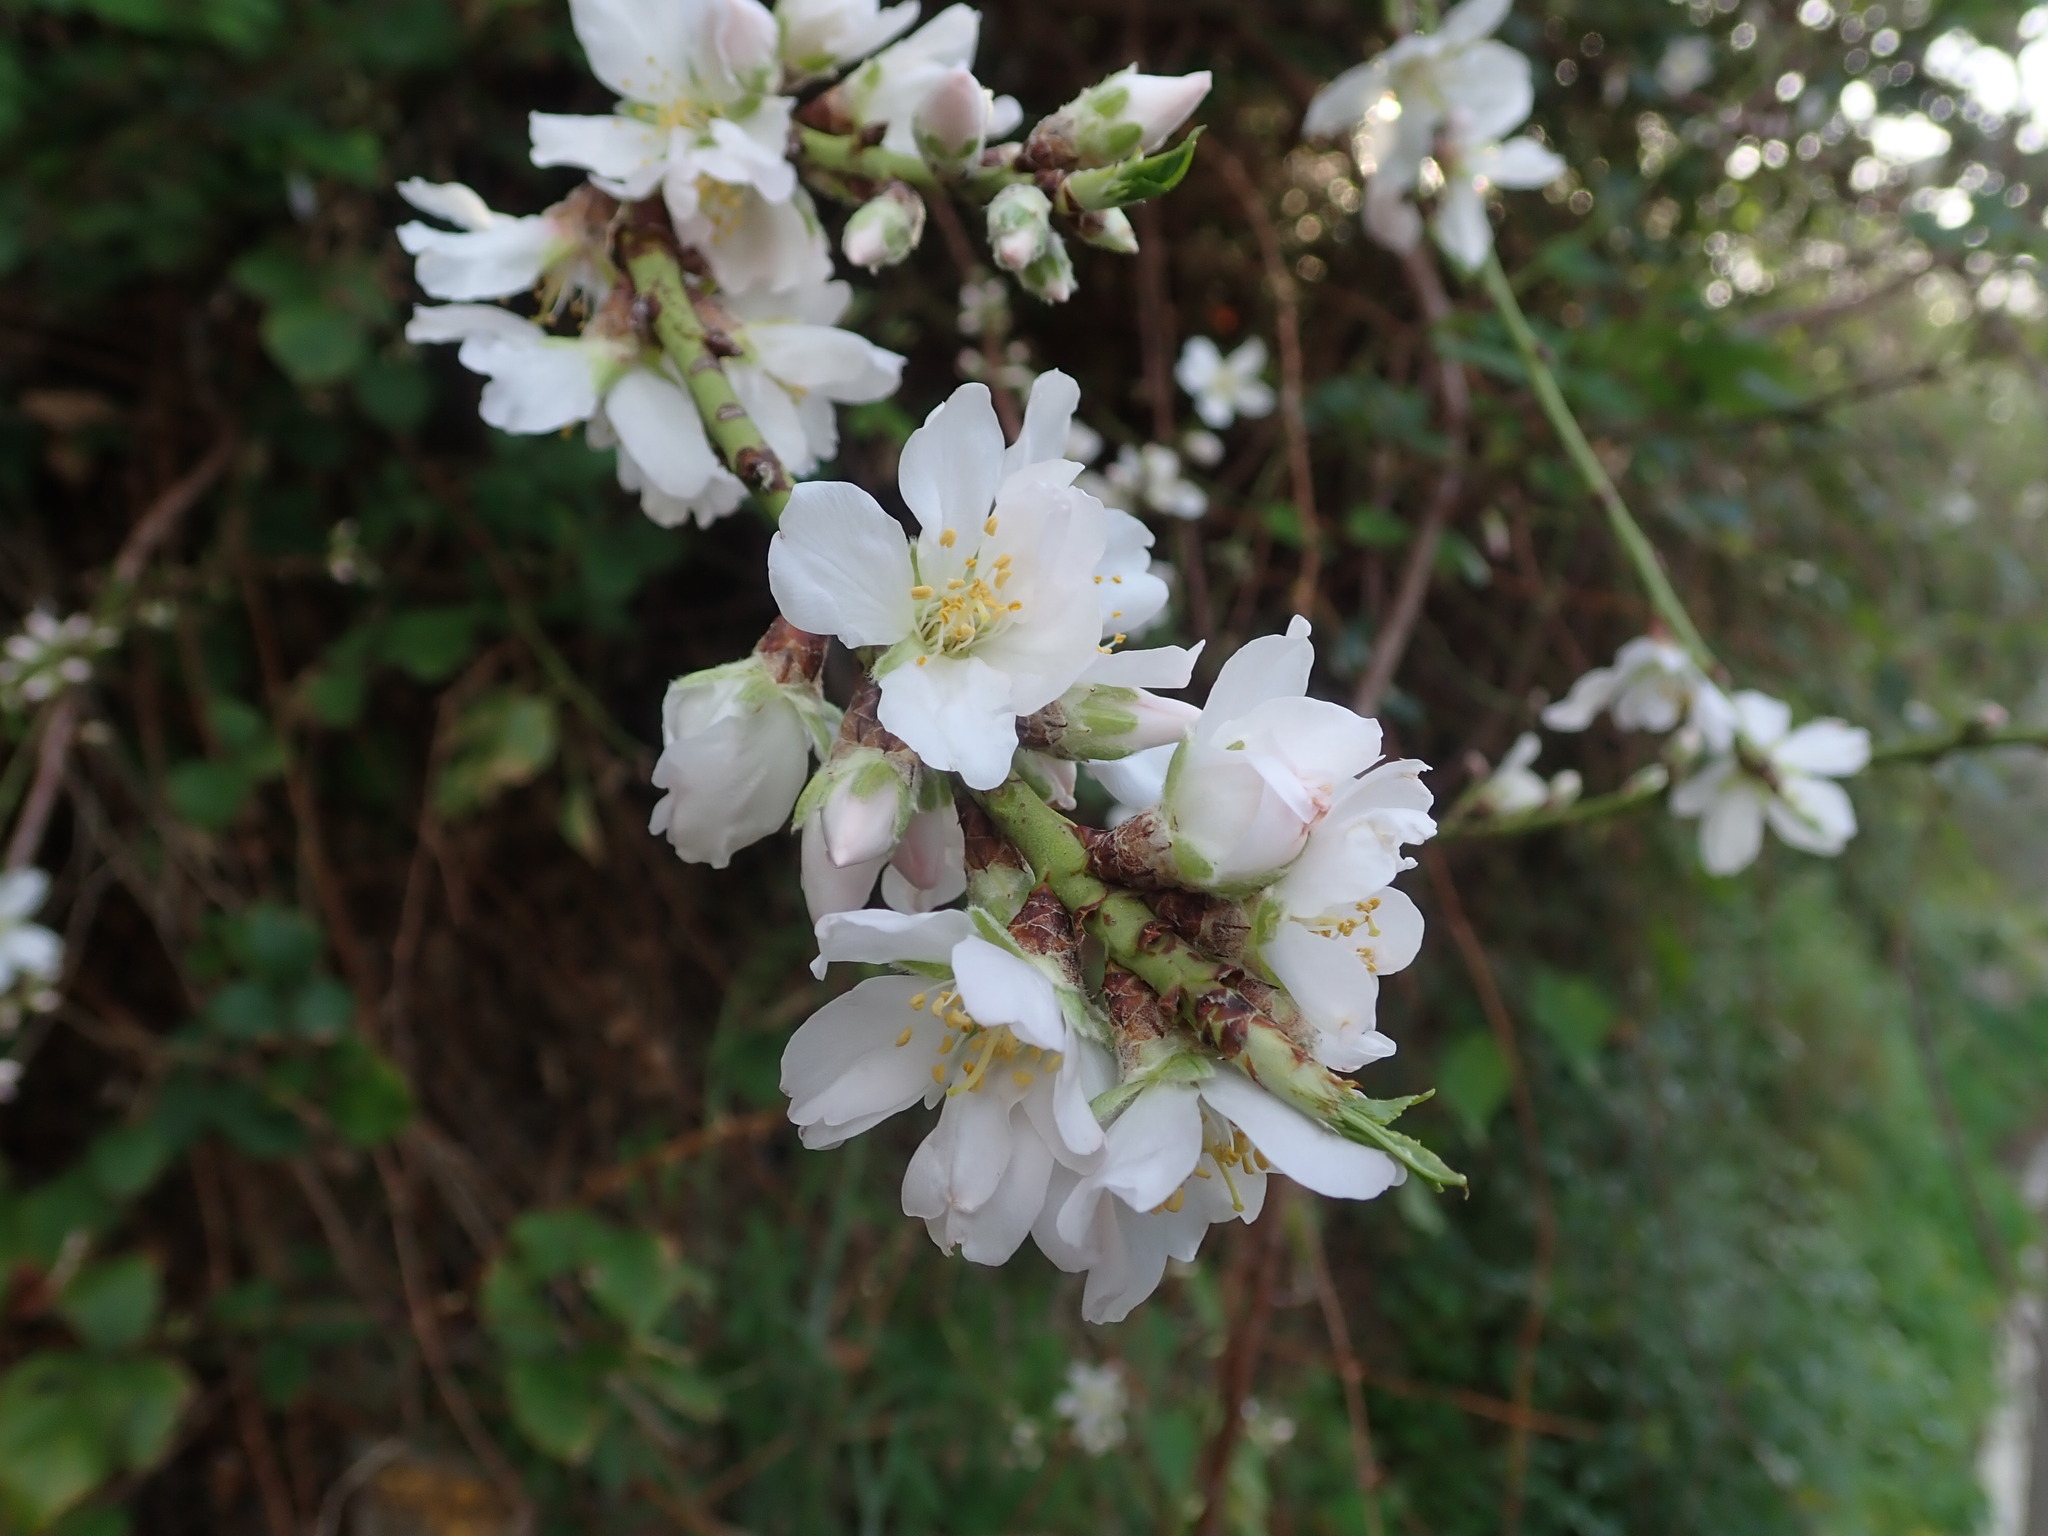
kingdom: Plantae
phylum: Tracheophyta
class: Magnoliopsida
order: Rosales
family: Rosaceae
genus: Prunus
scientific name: Prunus amygdalus
